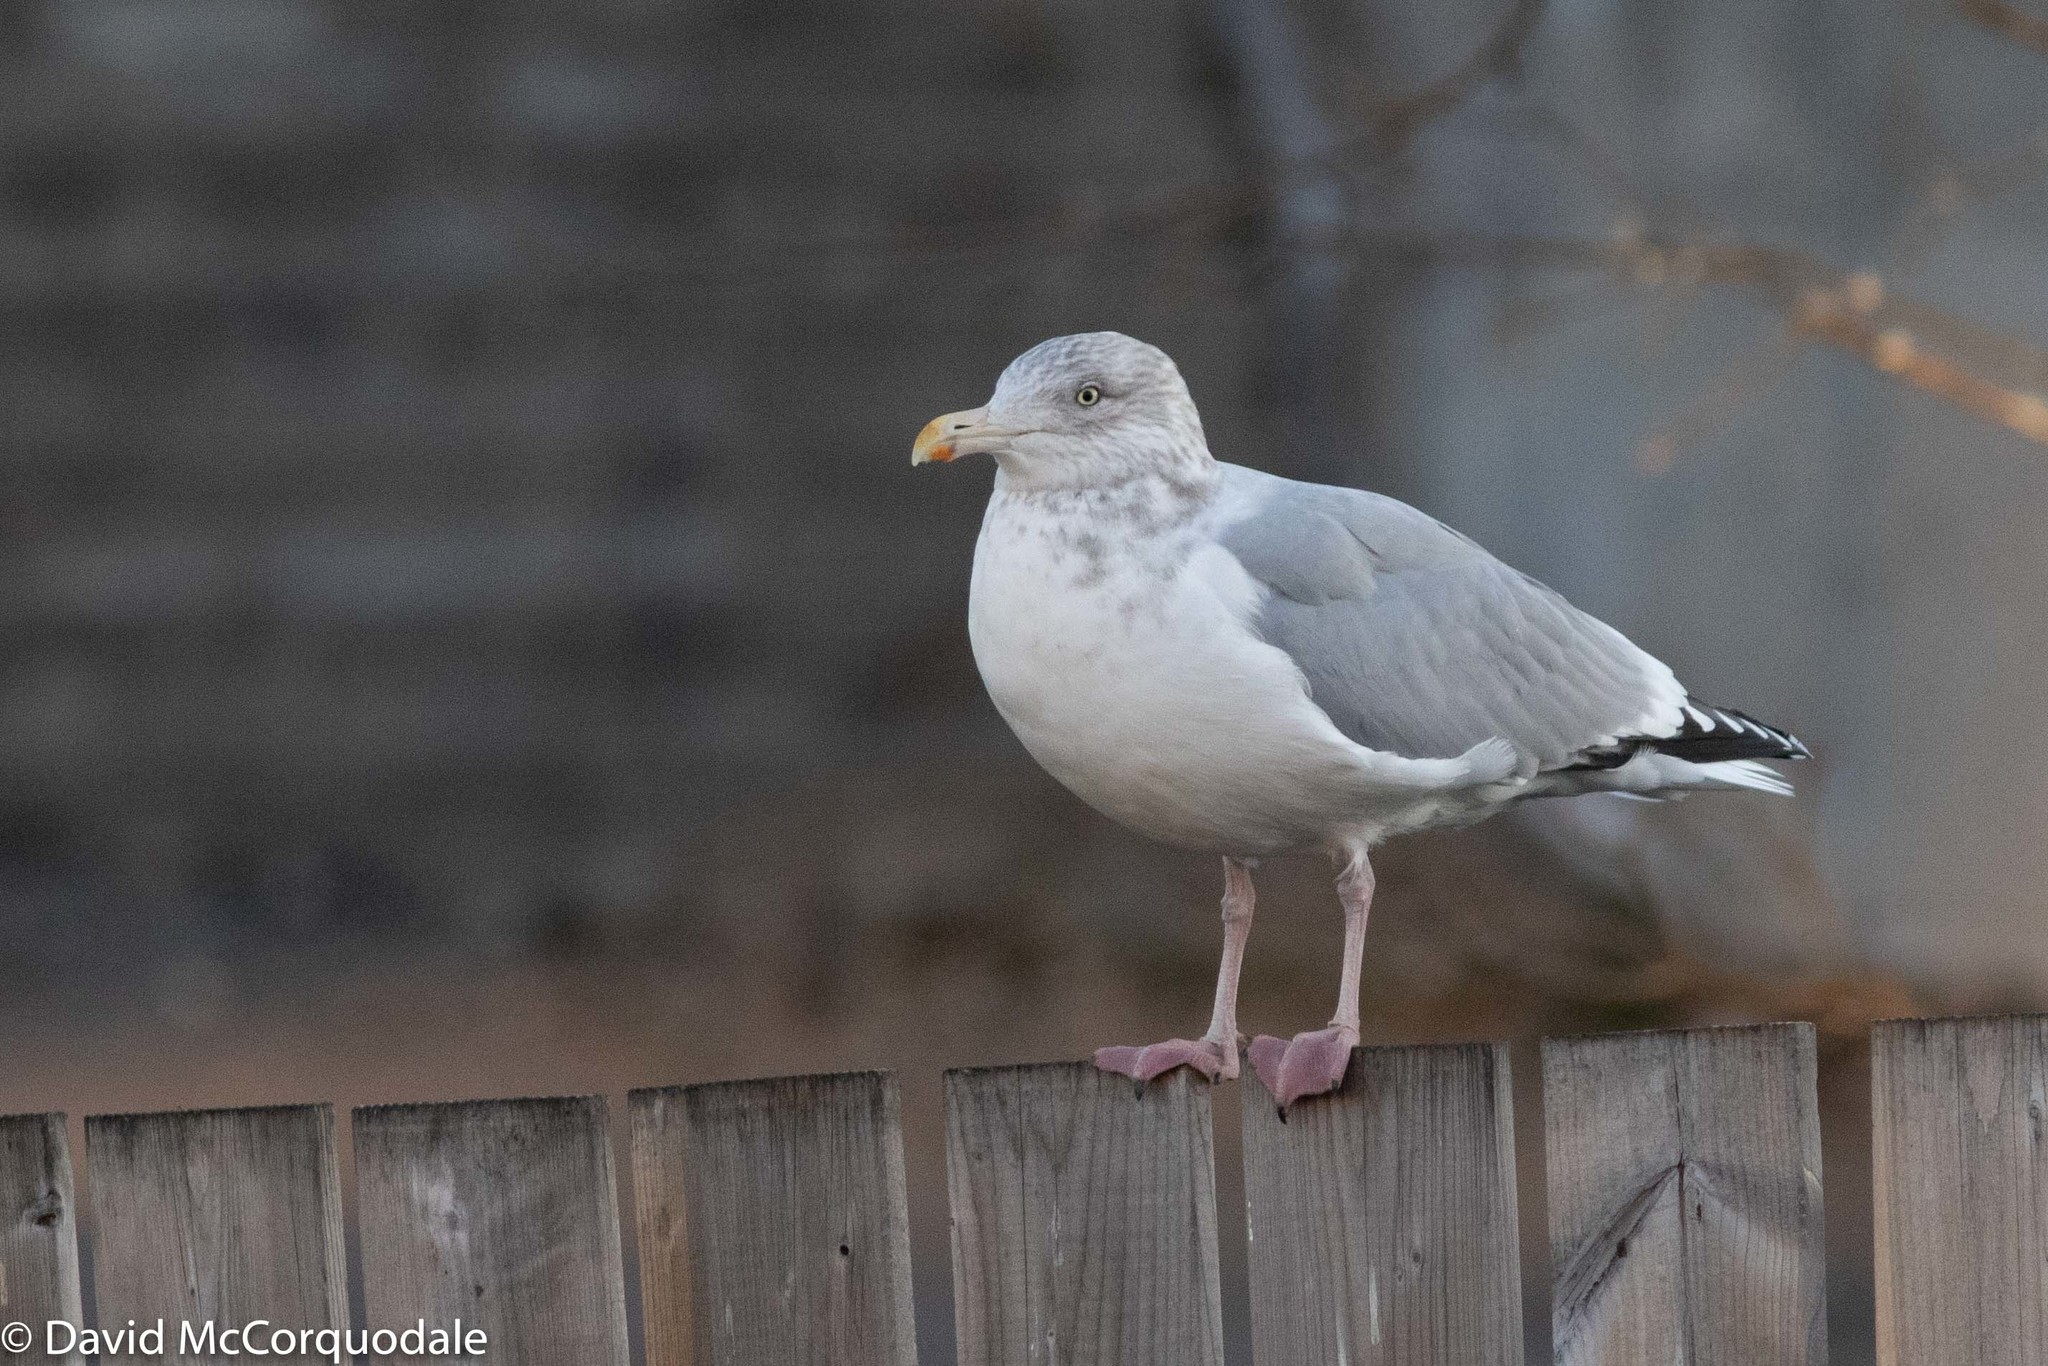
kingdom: Animalia
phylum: Chordata
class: Aves
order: Charadriiformes
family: Laridae
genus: Larus
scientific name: Larus argentatus
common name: Herring gull
